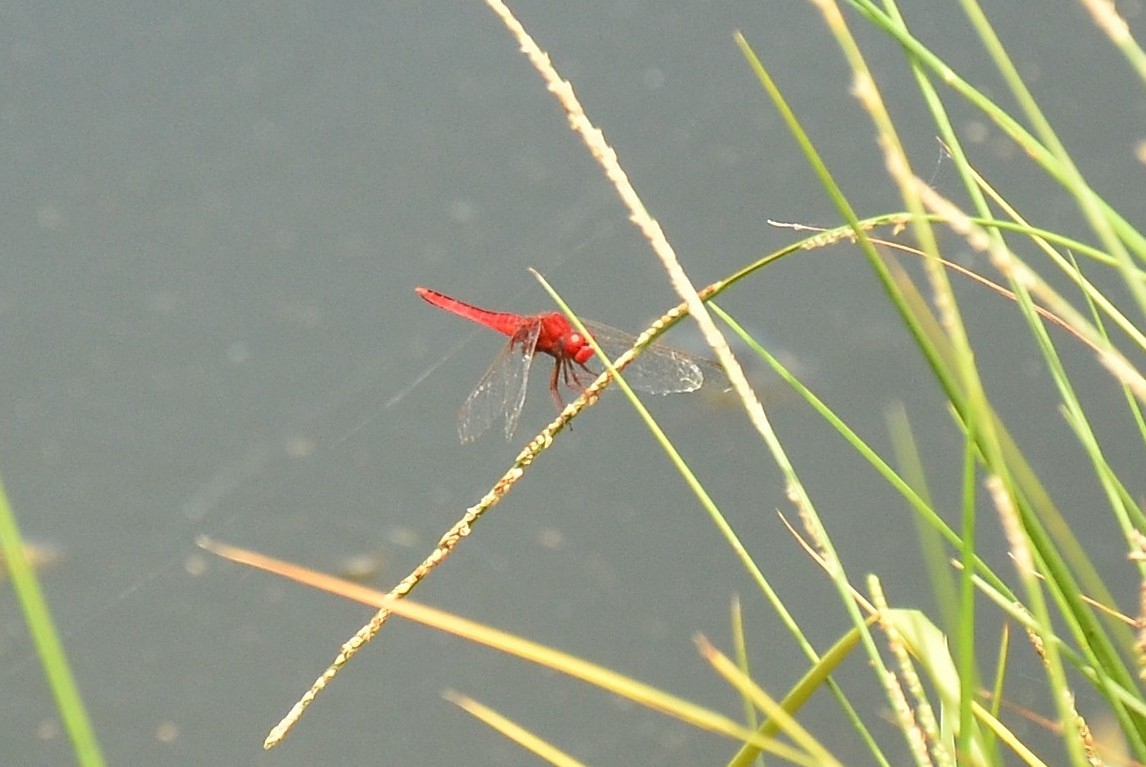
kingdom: Animalia
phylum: Arthropoda
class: Insecta
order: Odonata
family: Libellulidae
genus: Crocothemis
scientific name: Crocothemis servilia
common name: Scarlet skimmer
